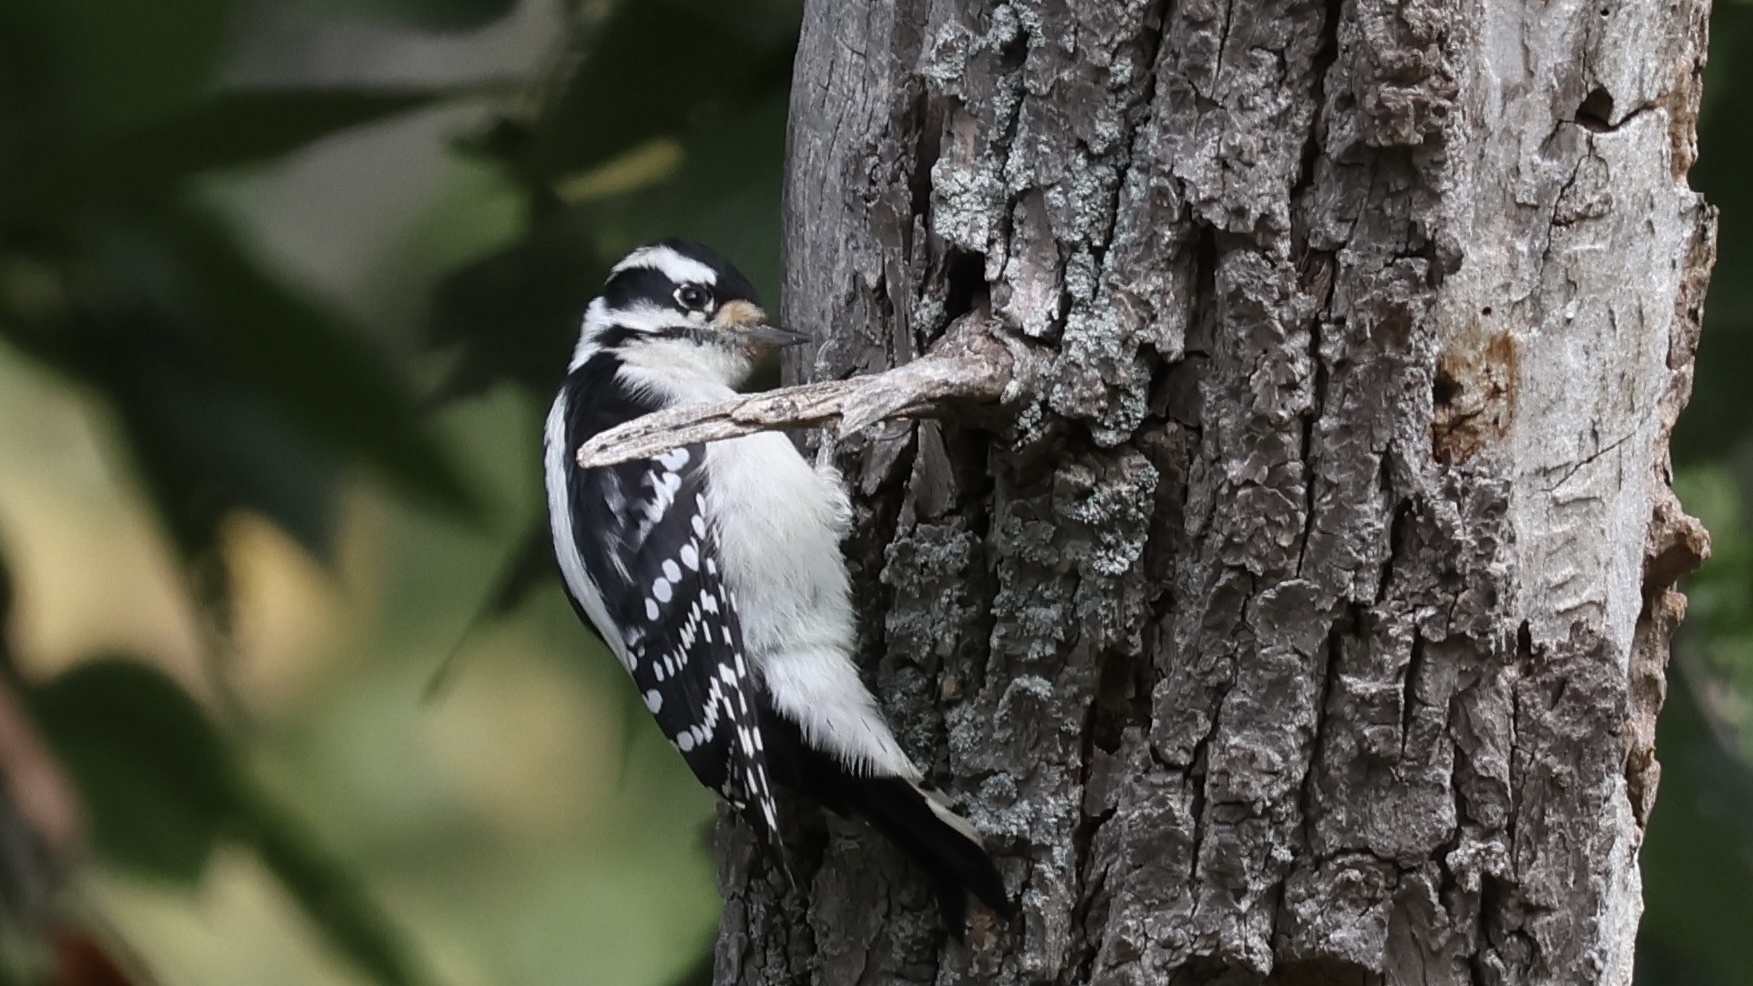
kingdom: Animalia
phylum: Chordata
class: Aves
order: Piciformes
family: Picidae
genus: Dryobates
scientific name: Dryobates pubescens
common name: Downy woodpecker
